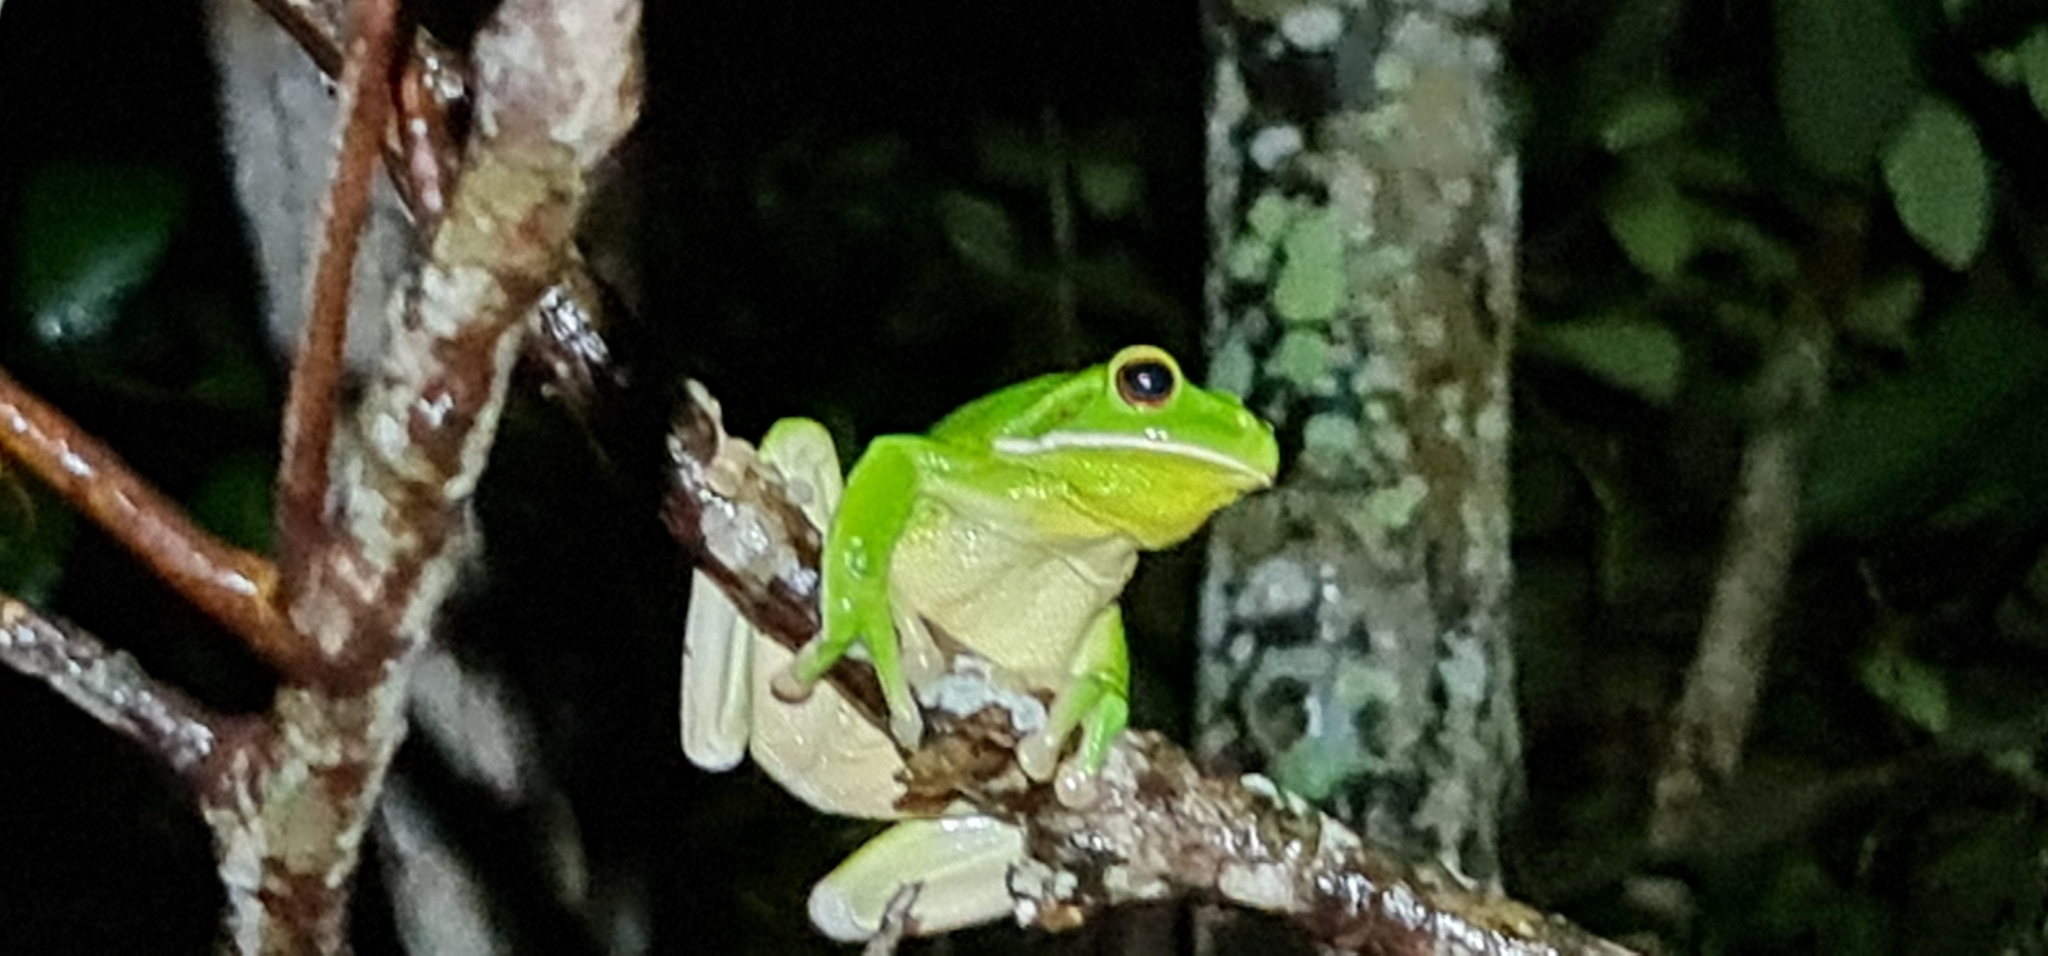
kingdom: Animalia
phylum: Chordata
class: Amphibia
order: Anura
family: Pelodryadidae
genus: Nyctimystes
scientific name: Nyctimystes infrafrenatus
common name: Australian giant treefrog
